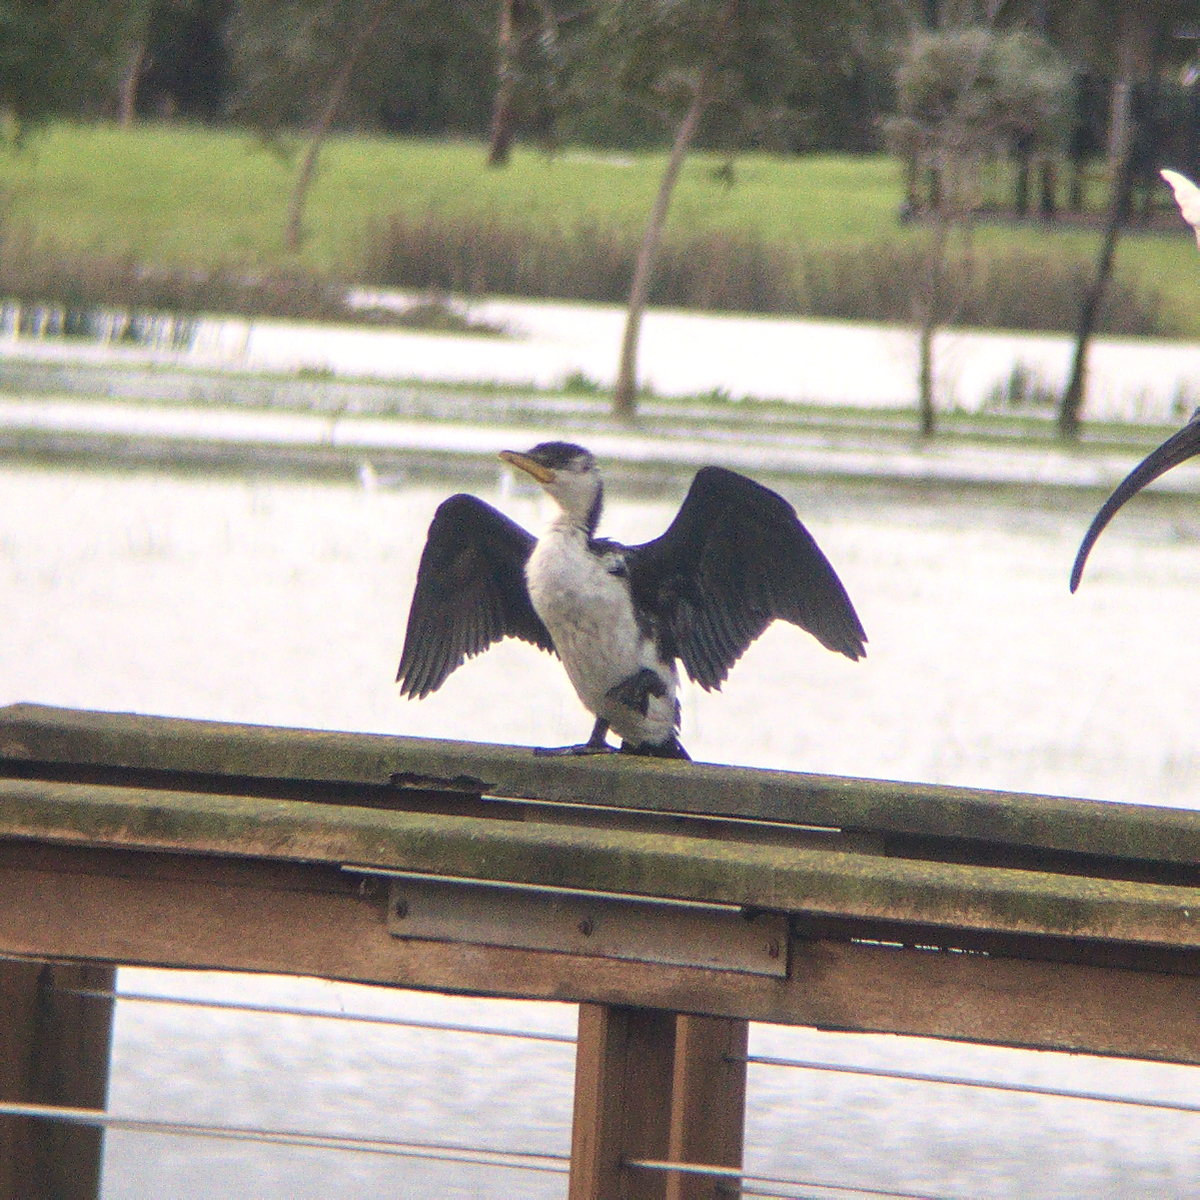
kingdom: Animalia
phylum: Chordata
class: Aves
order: Suliformes
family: Phalacrocoracidae
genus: Microcarbo
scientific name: Microcarbo melanoleucos
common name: Little pied cormorant
